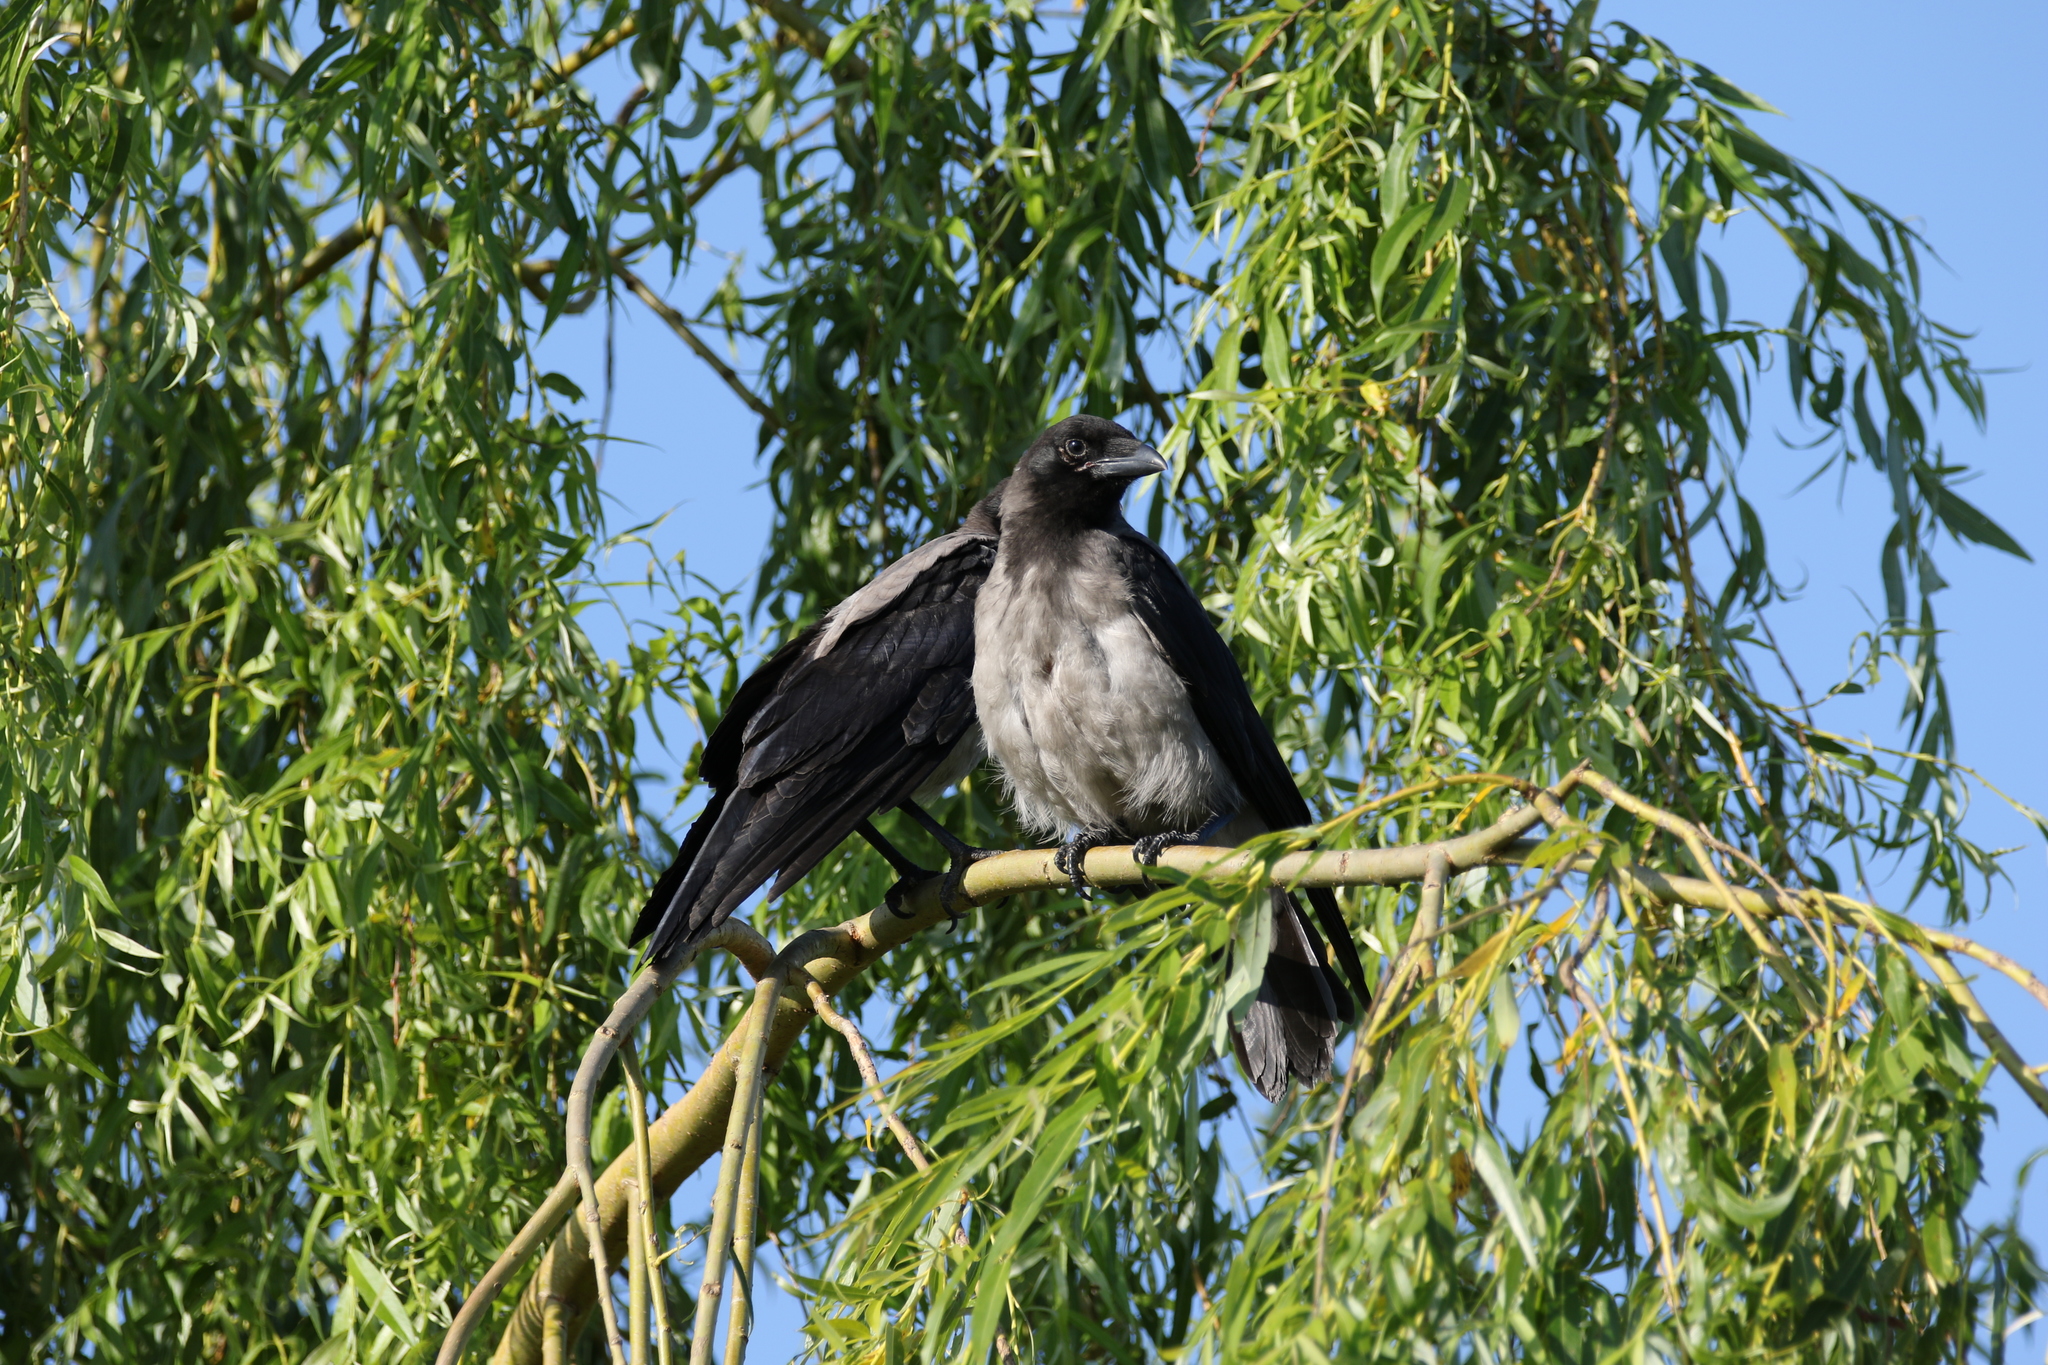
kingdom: Animalia
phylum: Chordata
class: Aves
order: Passeriformes
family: Corvidae
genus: Corvus
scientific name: Corvus cornix
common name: Hooded crow
